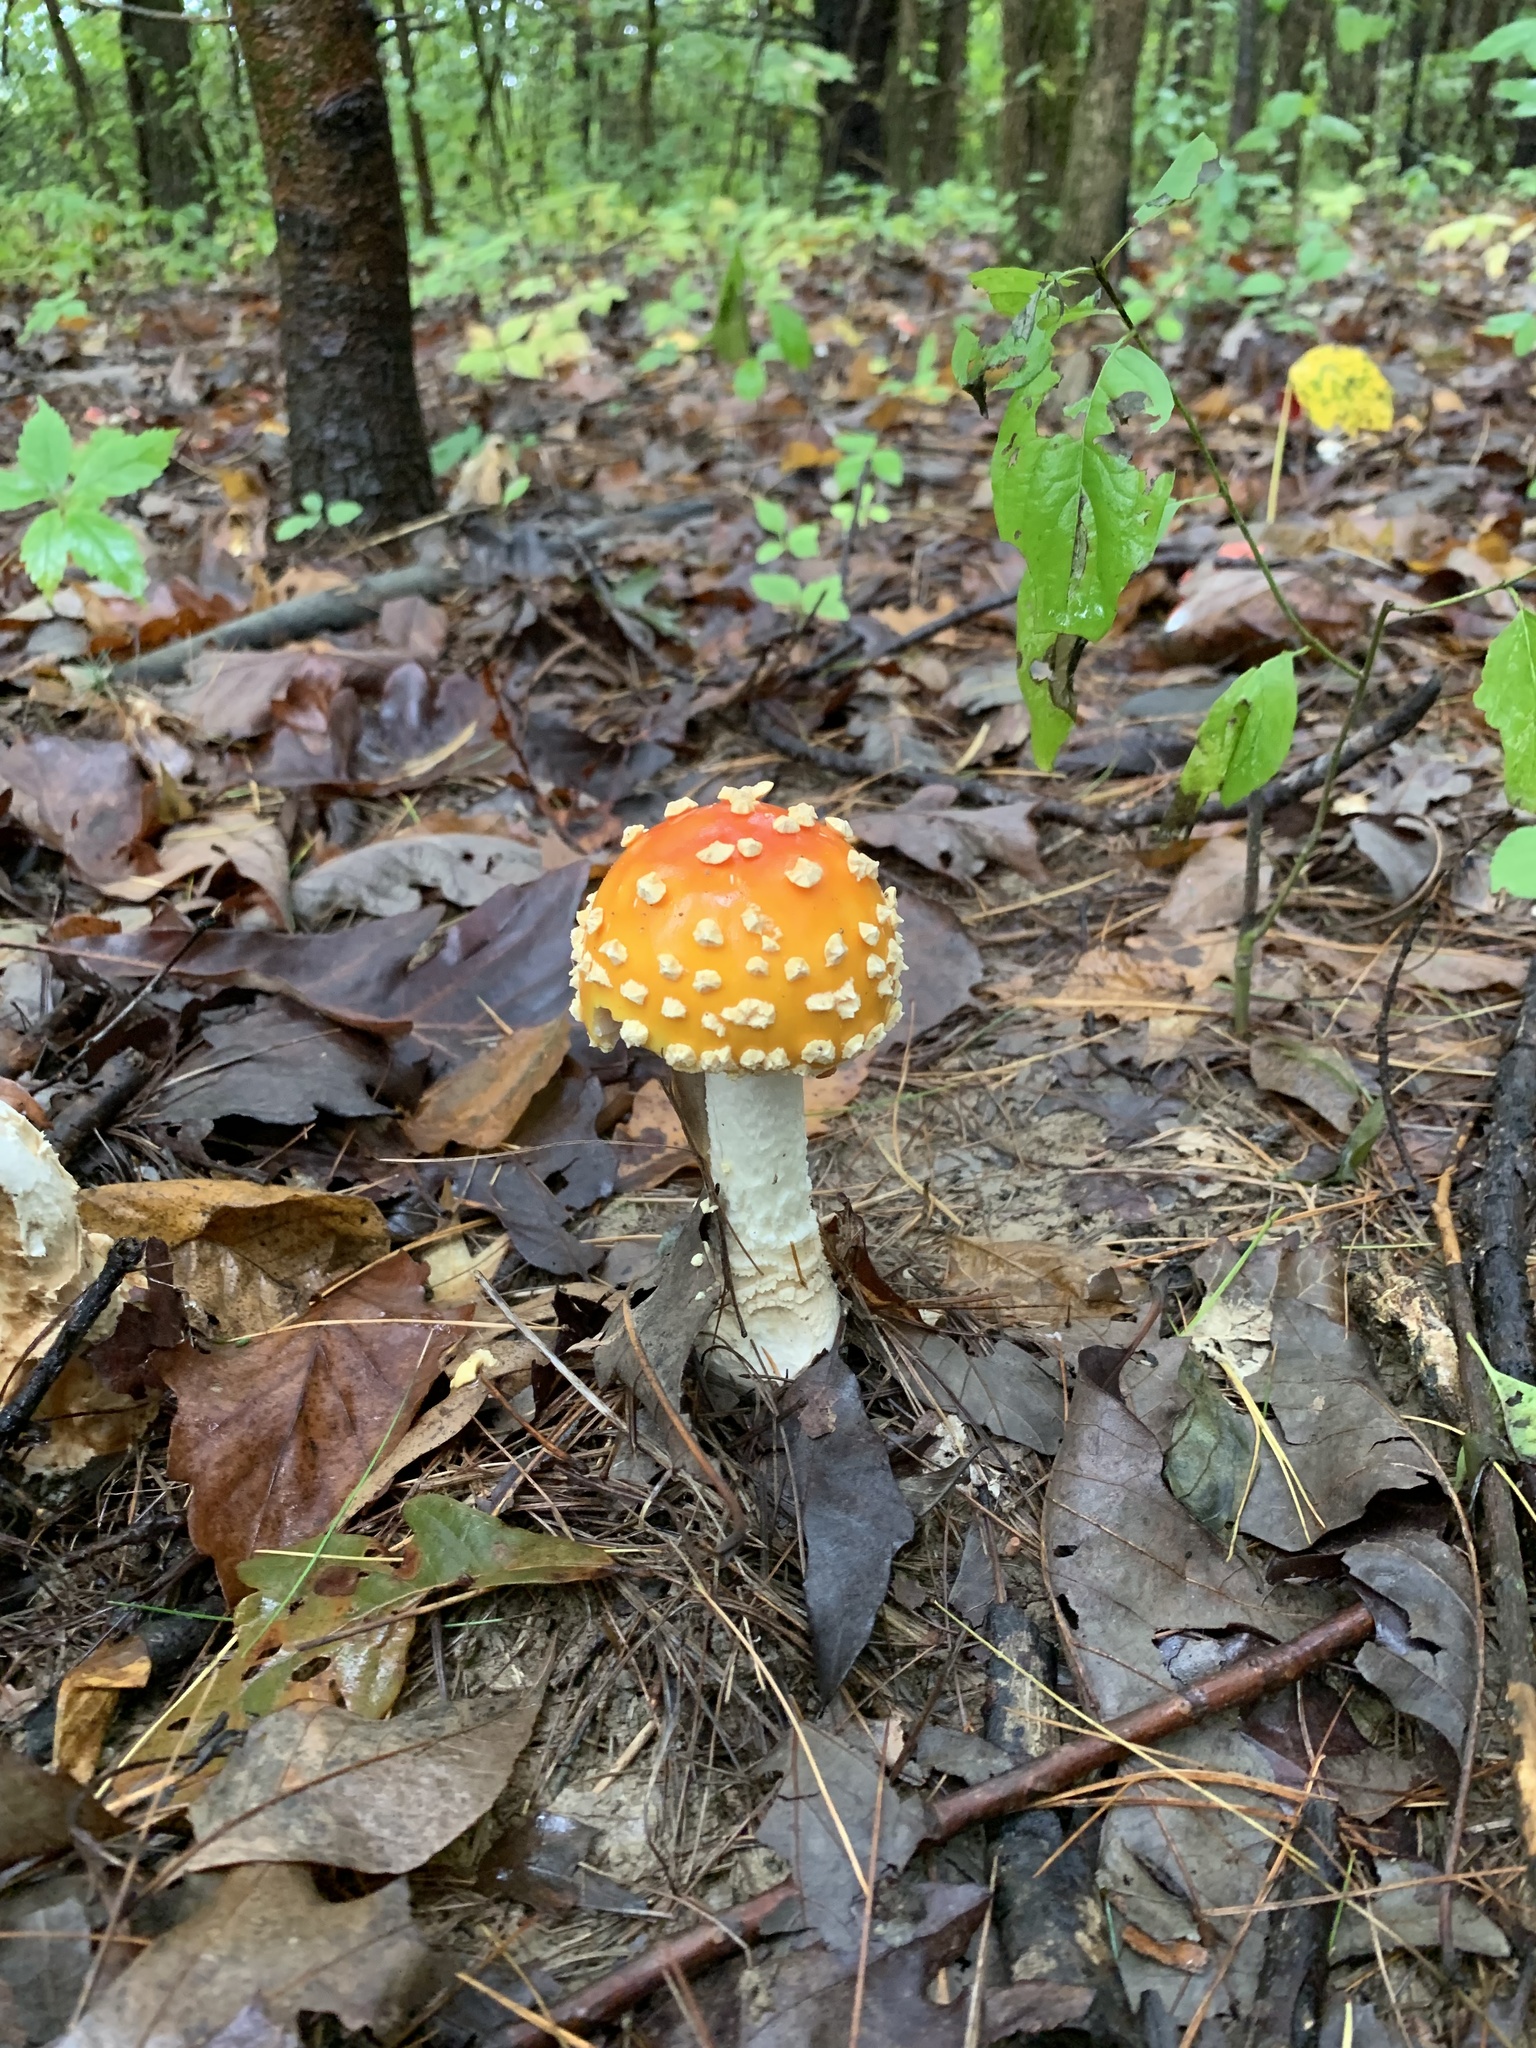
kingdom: Fungi
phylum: Basidiomycota
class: Agaricomycetes
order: Agaricales
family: Amanitaceae
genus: Amanita
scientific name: Amanita muscaria
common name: Fly agaric
